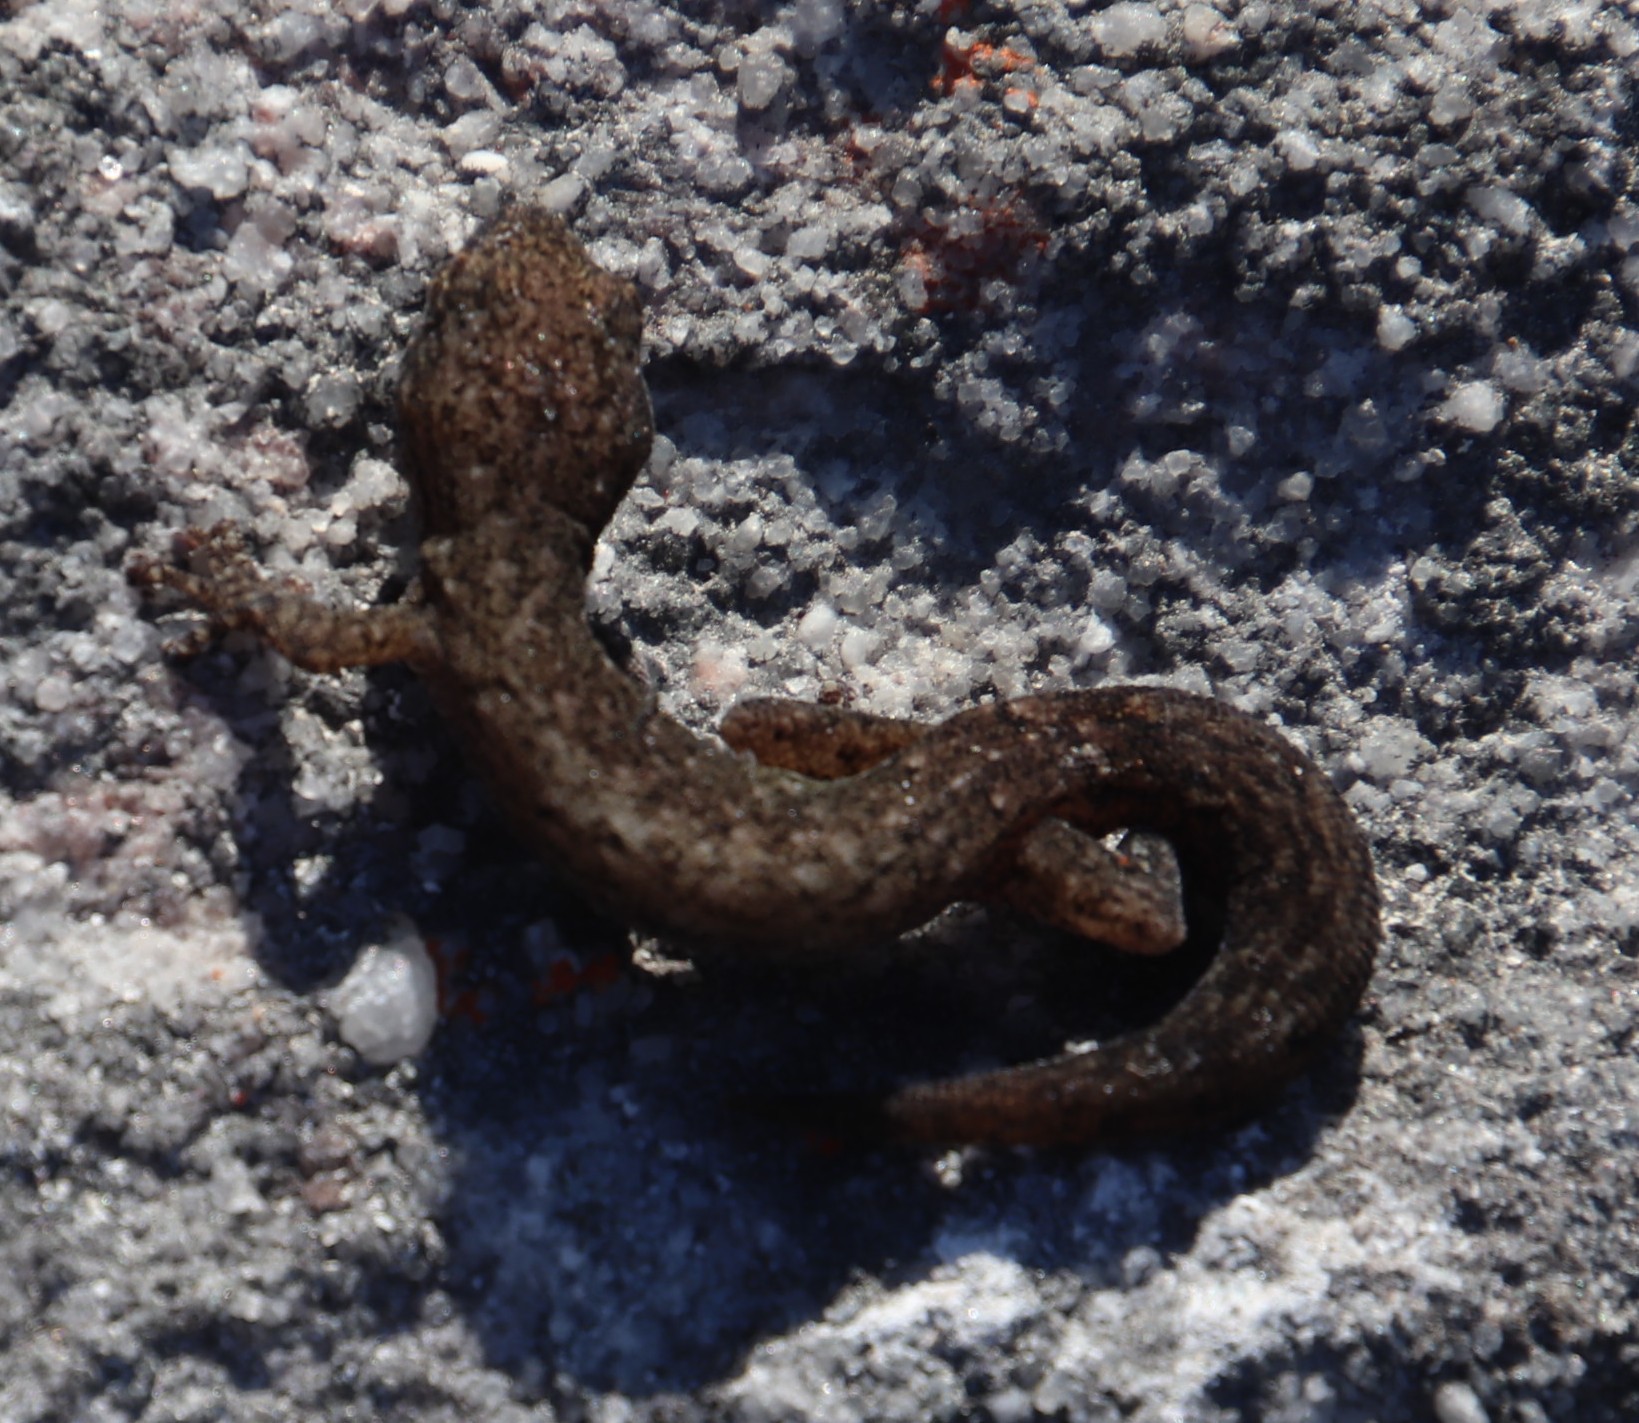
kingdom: Animalia
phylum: Chordata
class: Squamata
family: Gekkonidae
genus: Afrogecko
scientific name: Afrogecko porphyreus
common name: Marbled leaf-toed gecko
